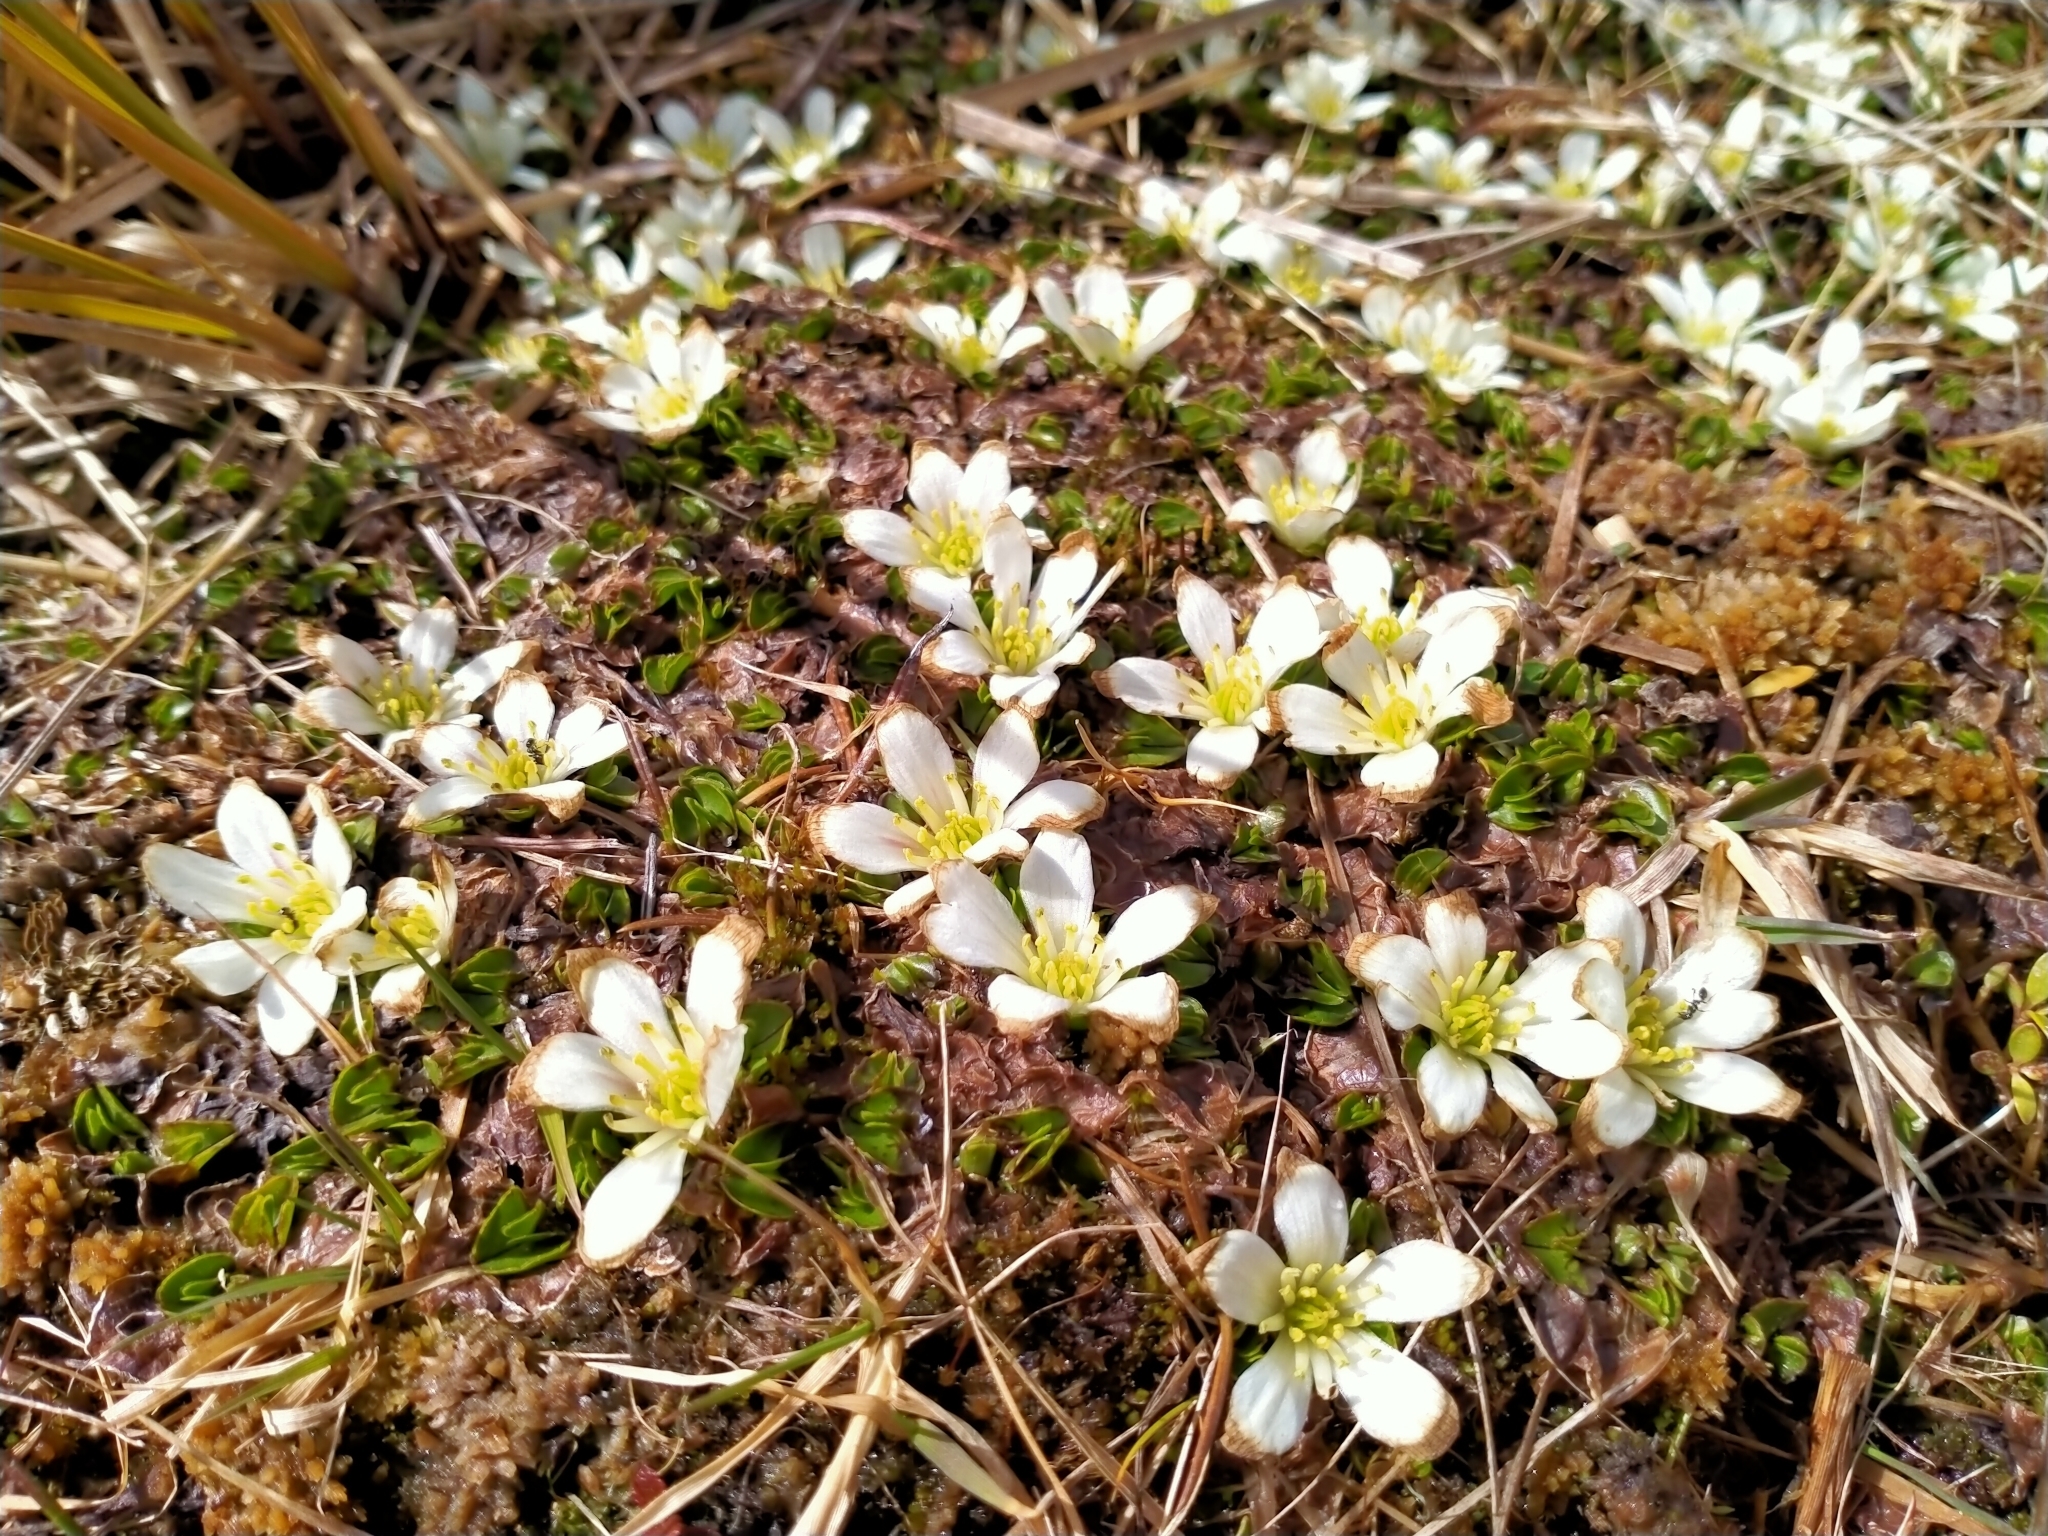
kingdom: Plantae
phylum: Tracheophyta
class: Magnoliopsida
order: Ranunculales
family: Ranunculaceae
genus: Caltha
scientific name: Caltha obtusa
